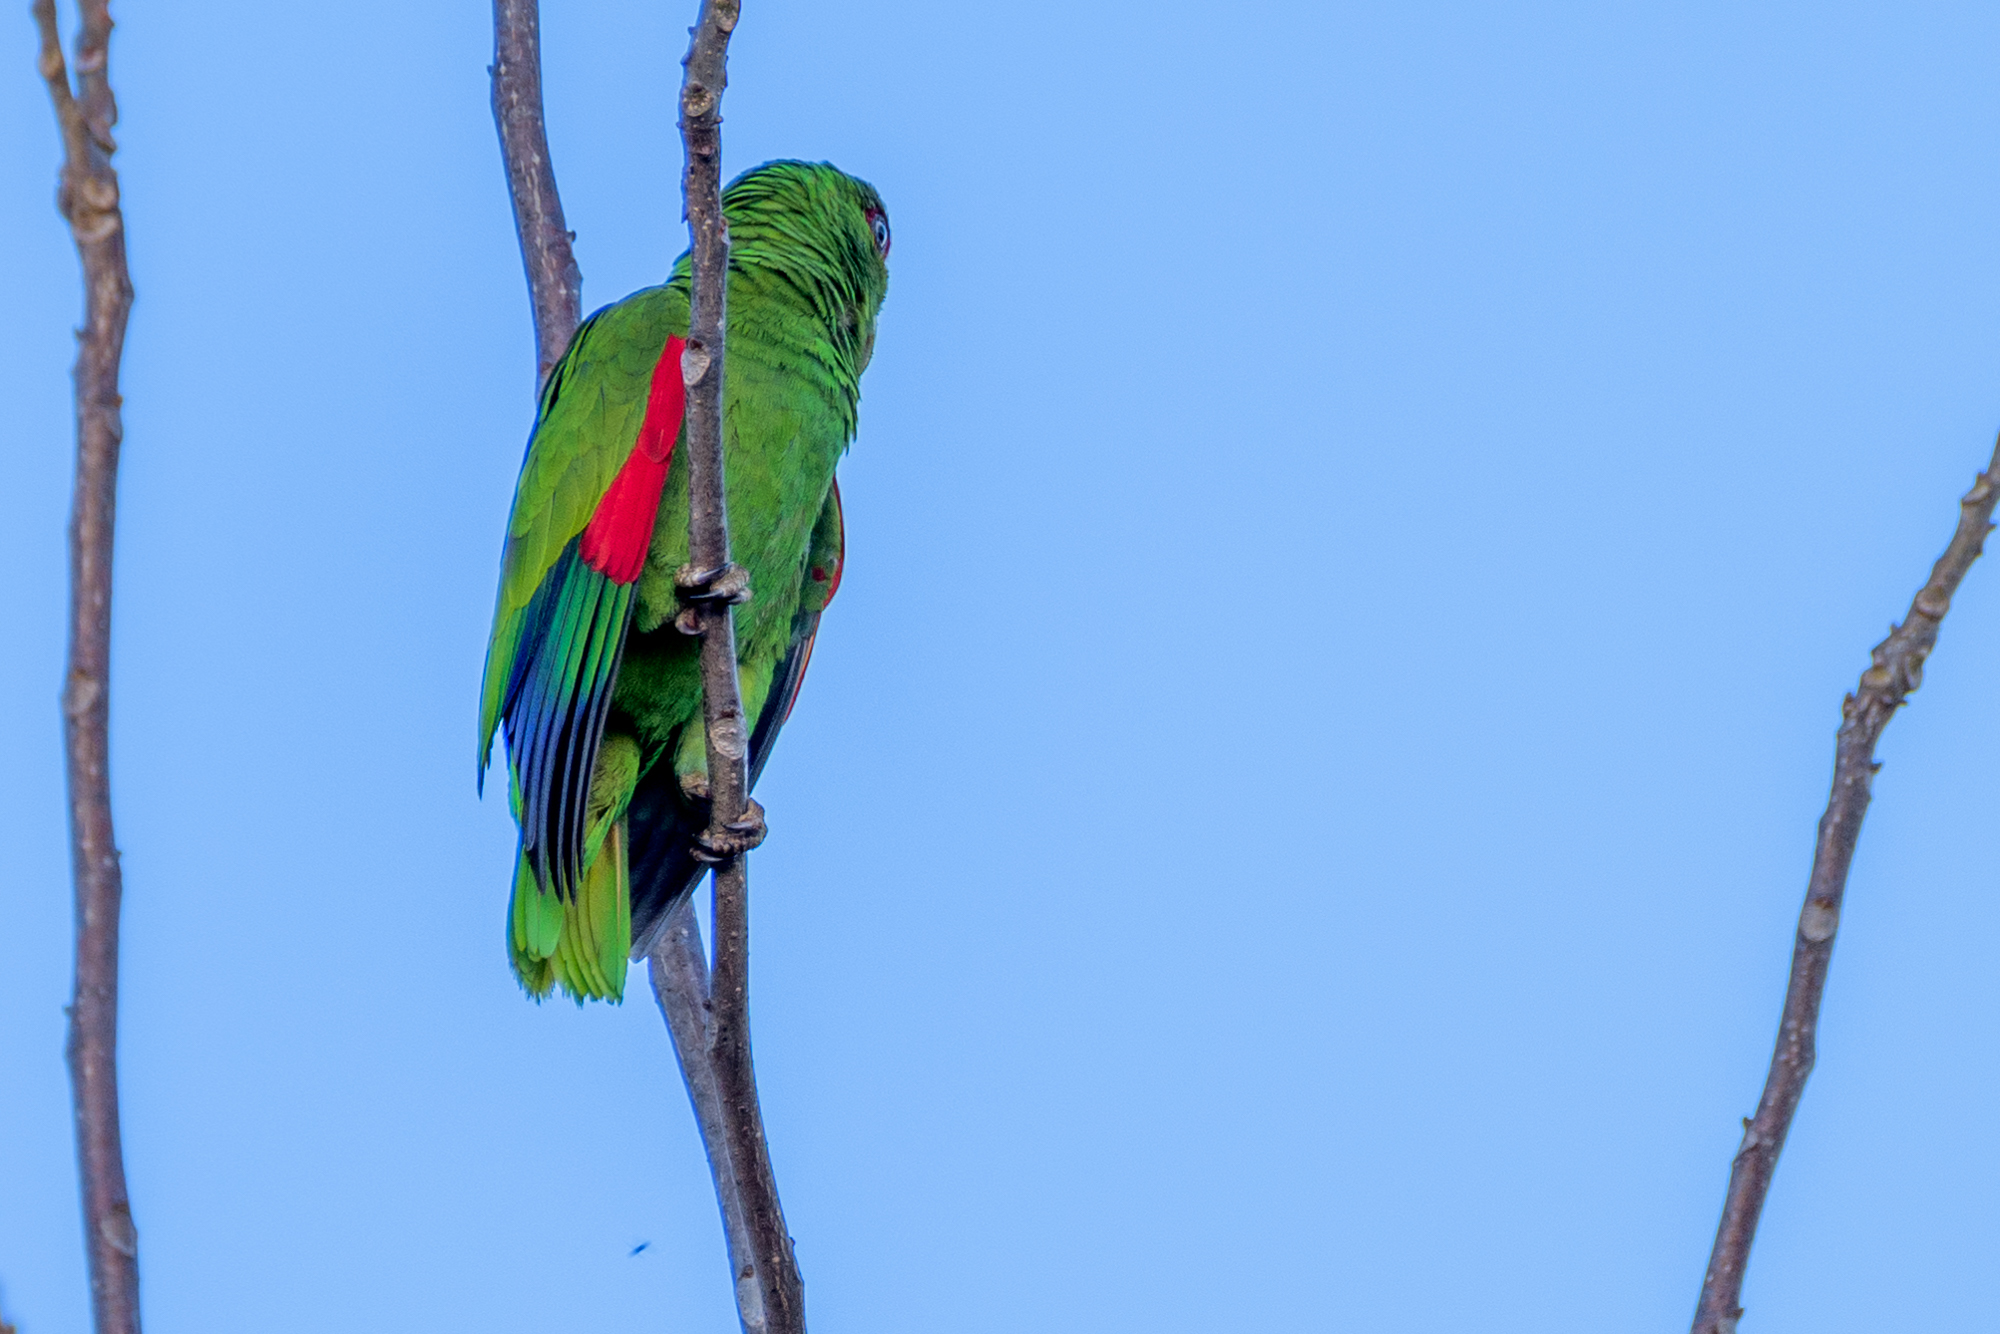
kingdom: Animalia
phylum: Chordata
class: Aves
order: Psittaciformes
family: Psittacidae
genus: Amazona
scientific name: Amazona albifrons
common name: White-fronted amazon
